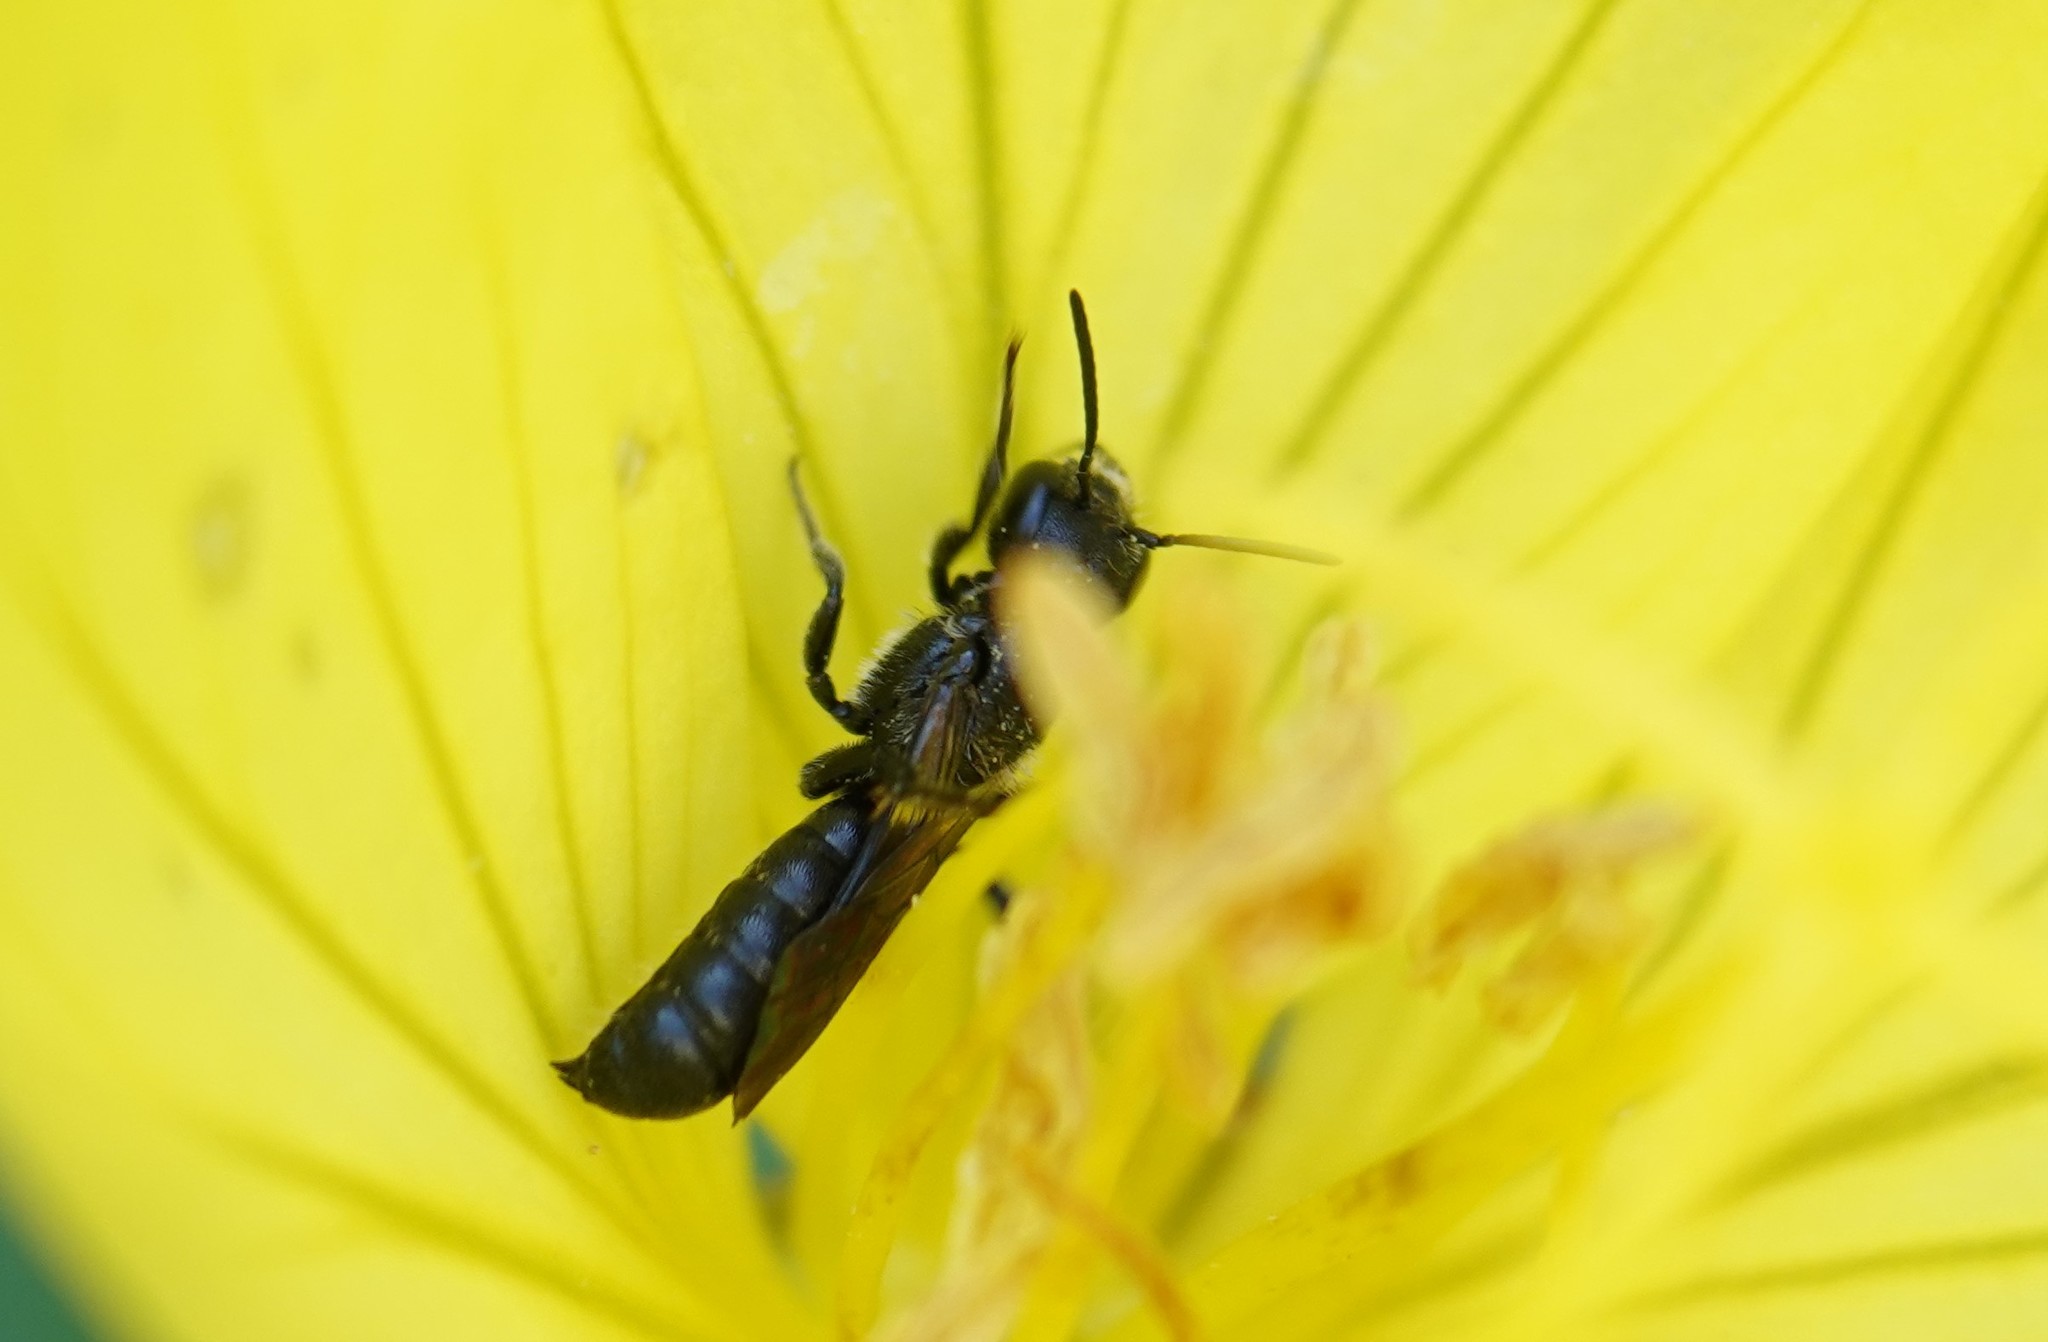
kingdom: Animalia
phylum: Arthropoda
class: Insecta
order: Hymenoptera
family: Megachilidae
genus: Chelostoma
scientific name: Chelostoma campanularum
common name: Small scissor bee
